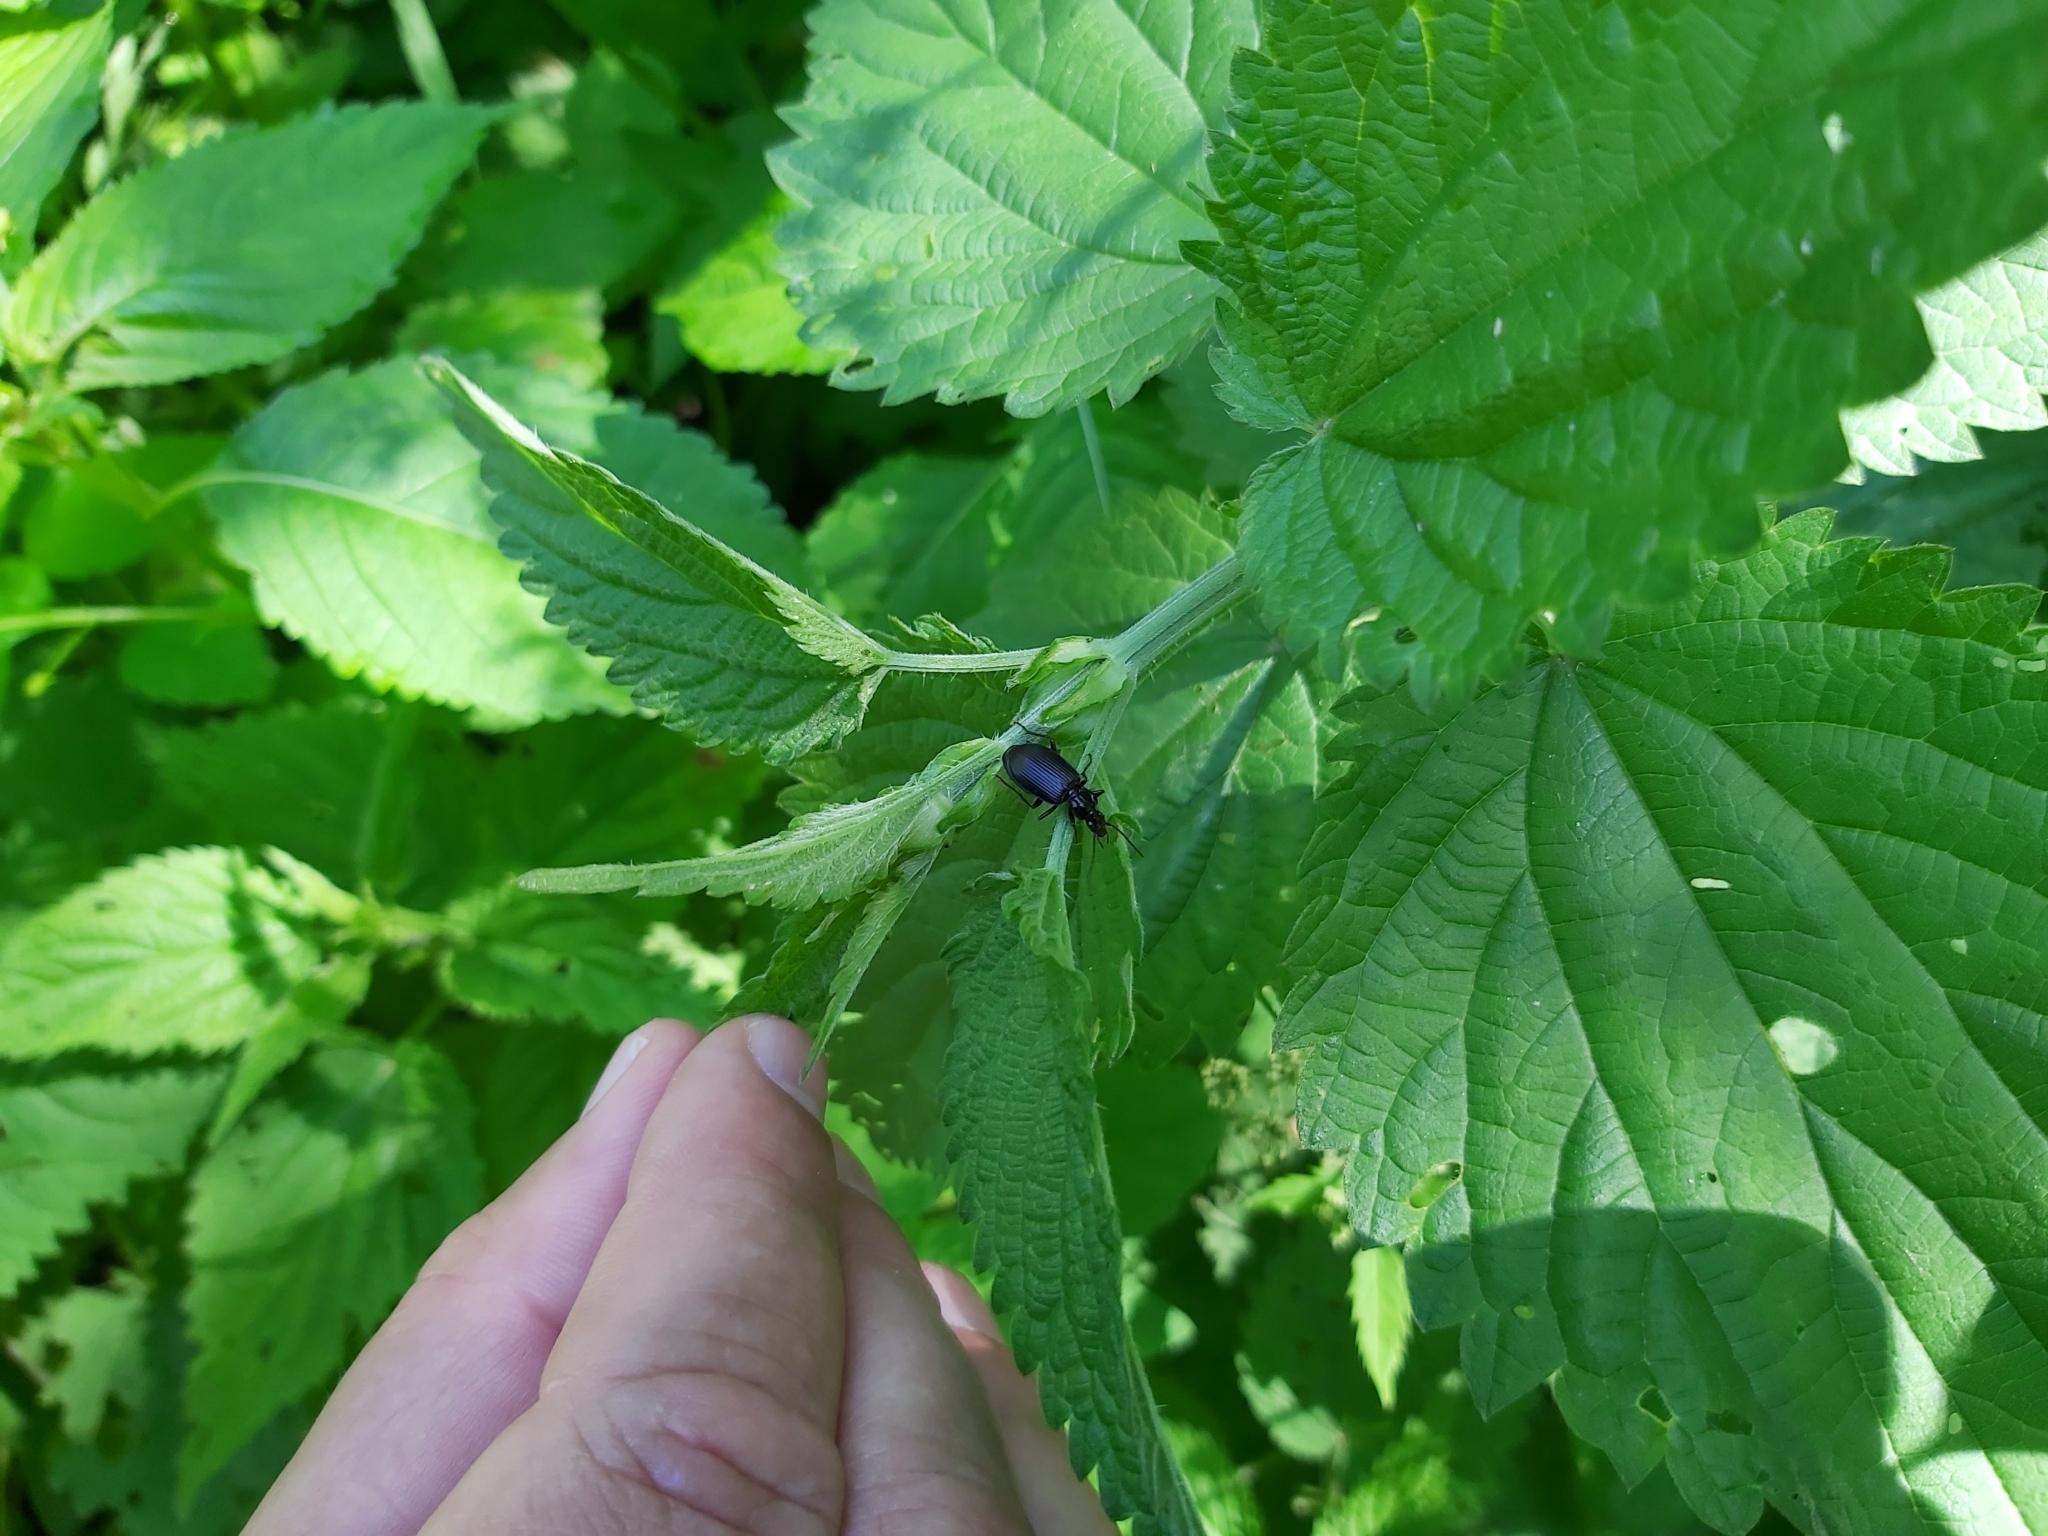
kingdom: Animalia
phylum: Arthropoda
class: Insecta
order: Coleoptera
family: Carabidae
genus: Platynus
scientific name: Platynus assimilis
